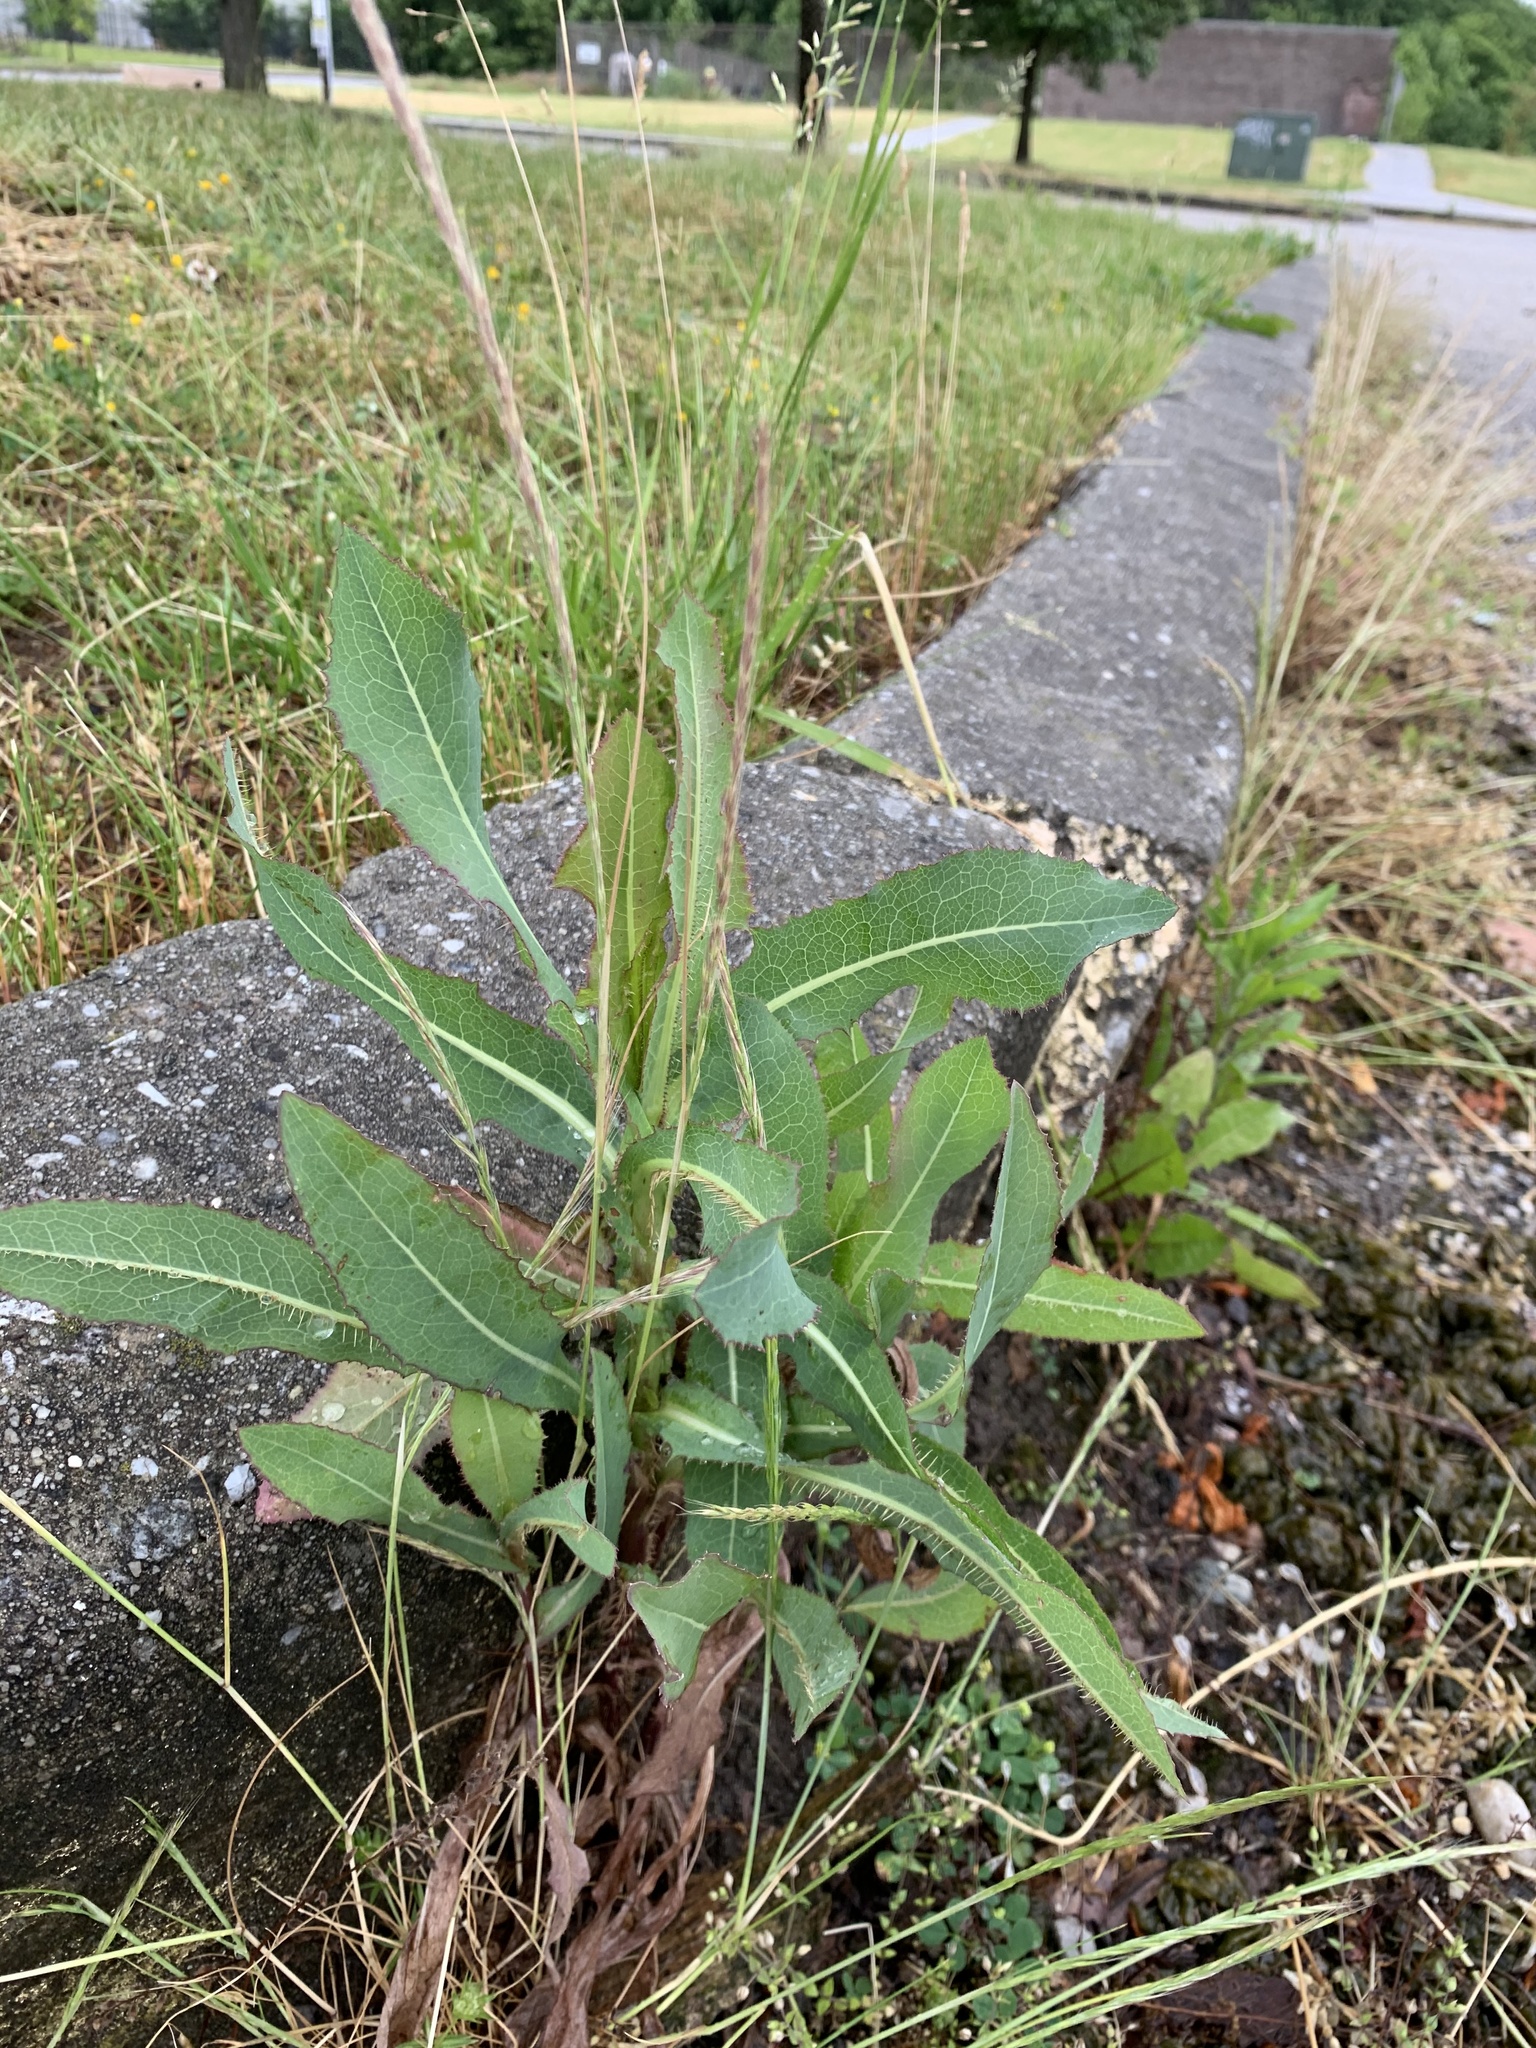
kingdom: Plantae
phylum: Tracheophyta
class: Magnoliopsida
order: Asterales
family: Asteraceae
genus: Lactuca
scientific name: Lactuca serriola
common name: Prickly lettuce
